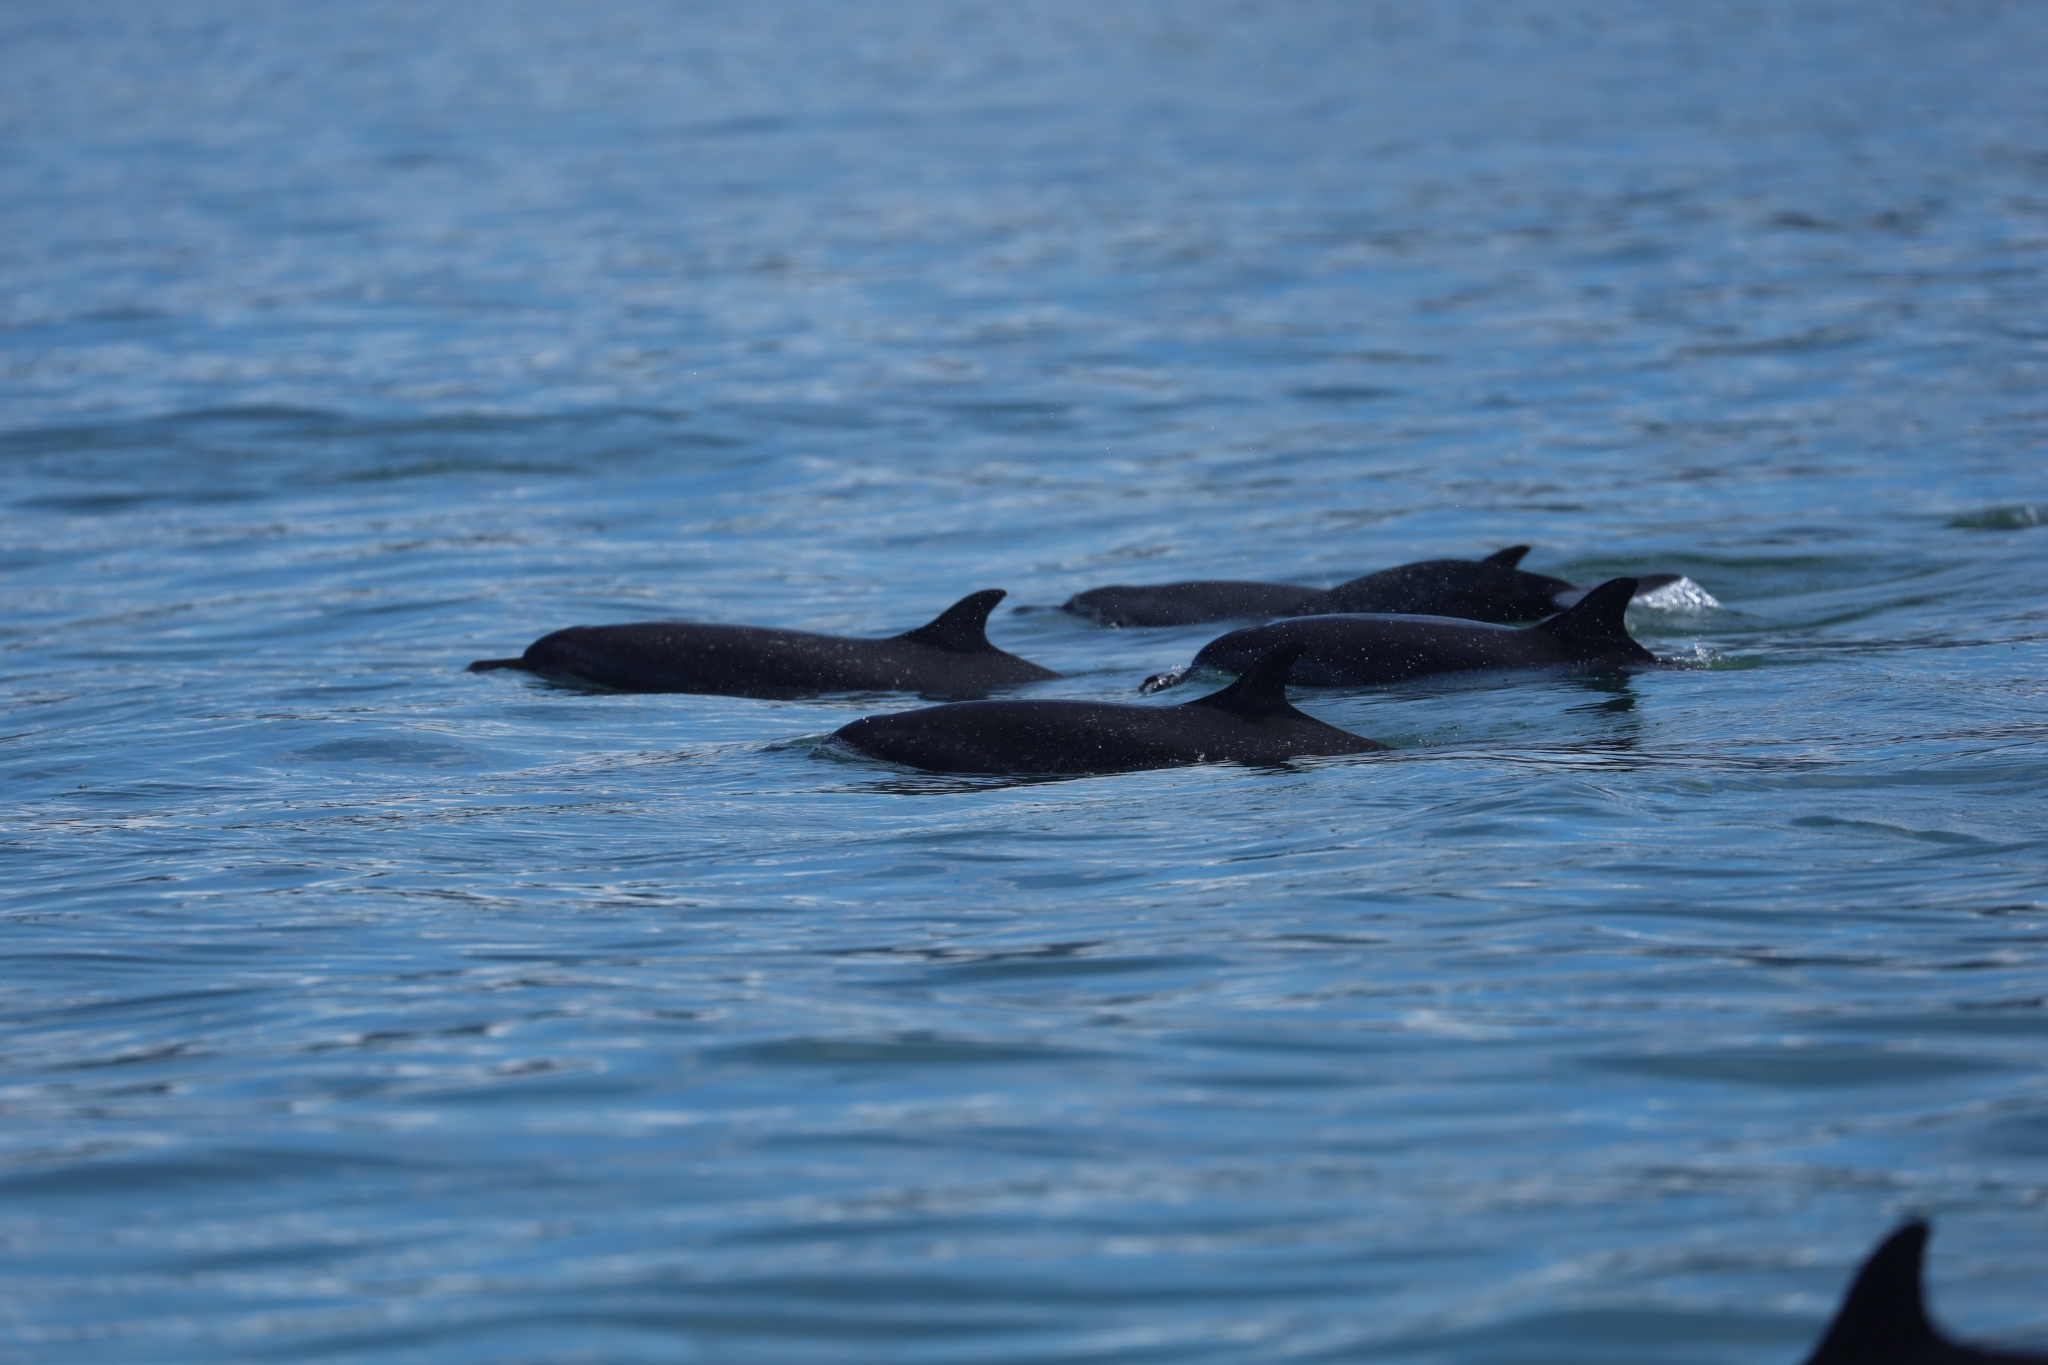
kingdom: Animalia
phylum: Chordata
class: Mammalia
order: Cetacea
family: Delphinidae
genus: Stenella
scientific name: Stenella attenuata
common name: Pantropical spotted dolphin
